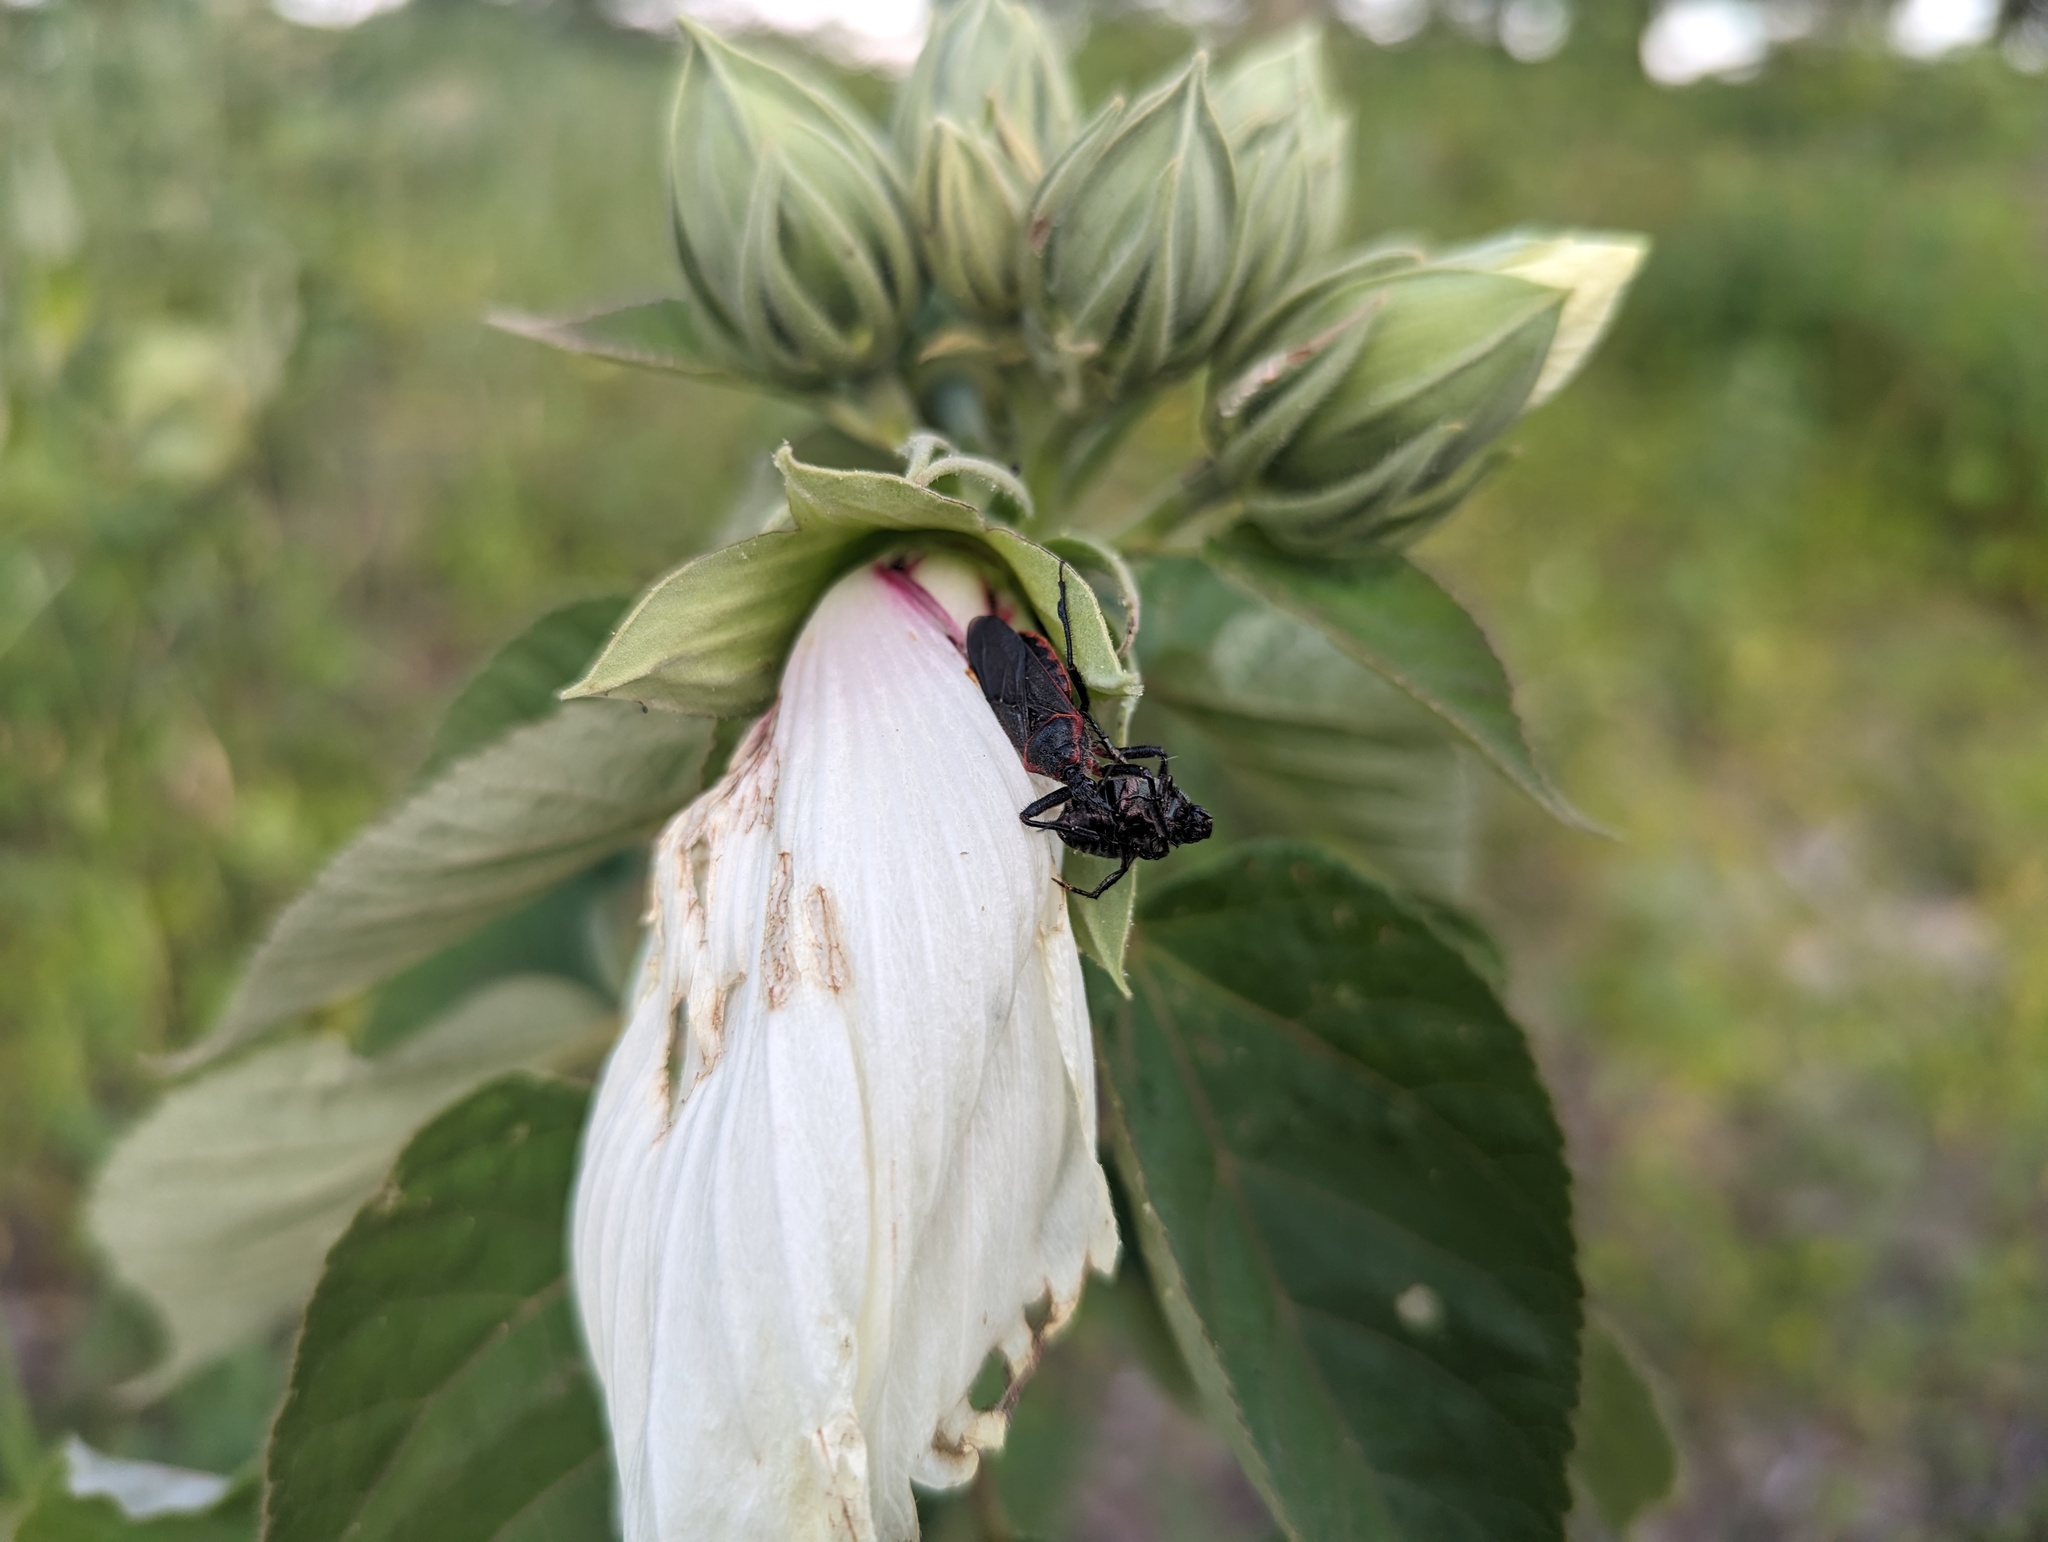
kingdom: Animalia
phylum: Arthropoda
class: Insecta
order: Hemiptera
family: Reduviidae
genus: Apiomerus
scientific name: Apiomerus crassipes
